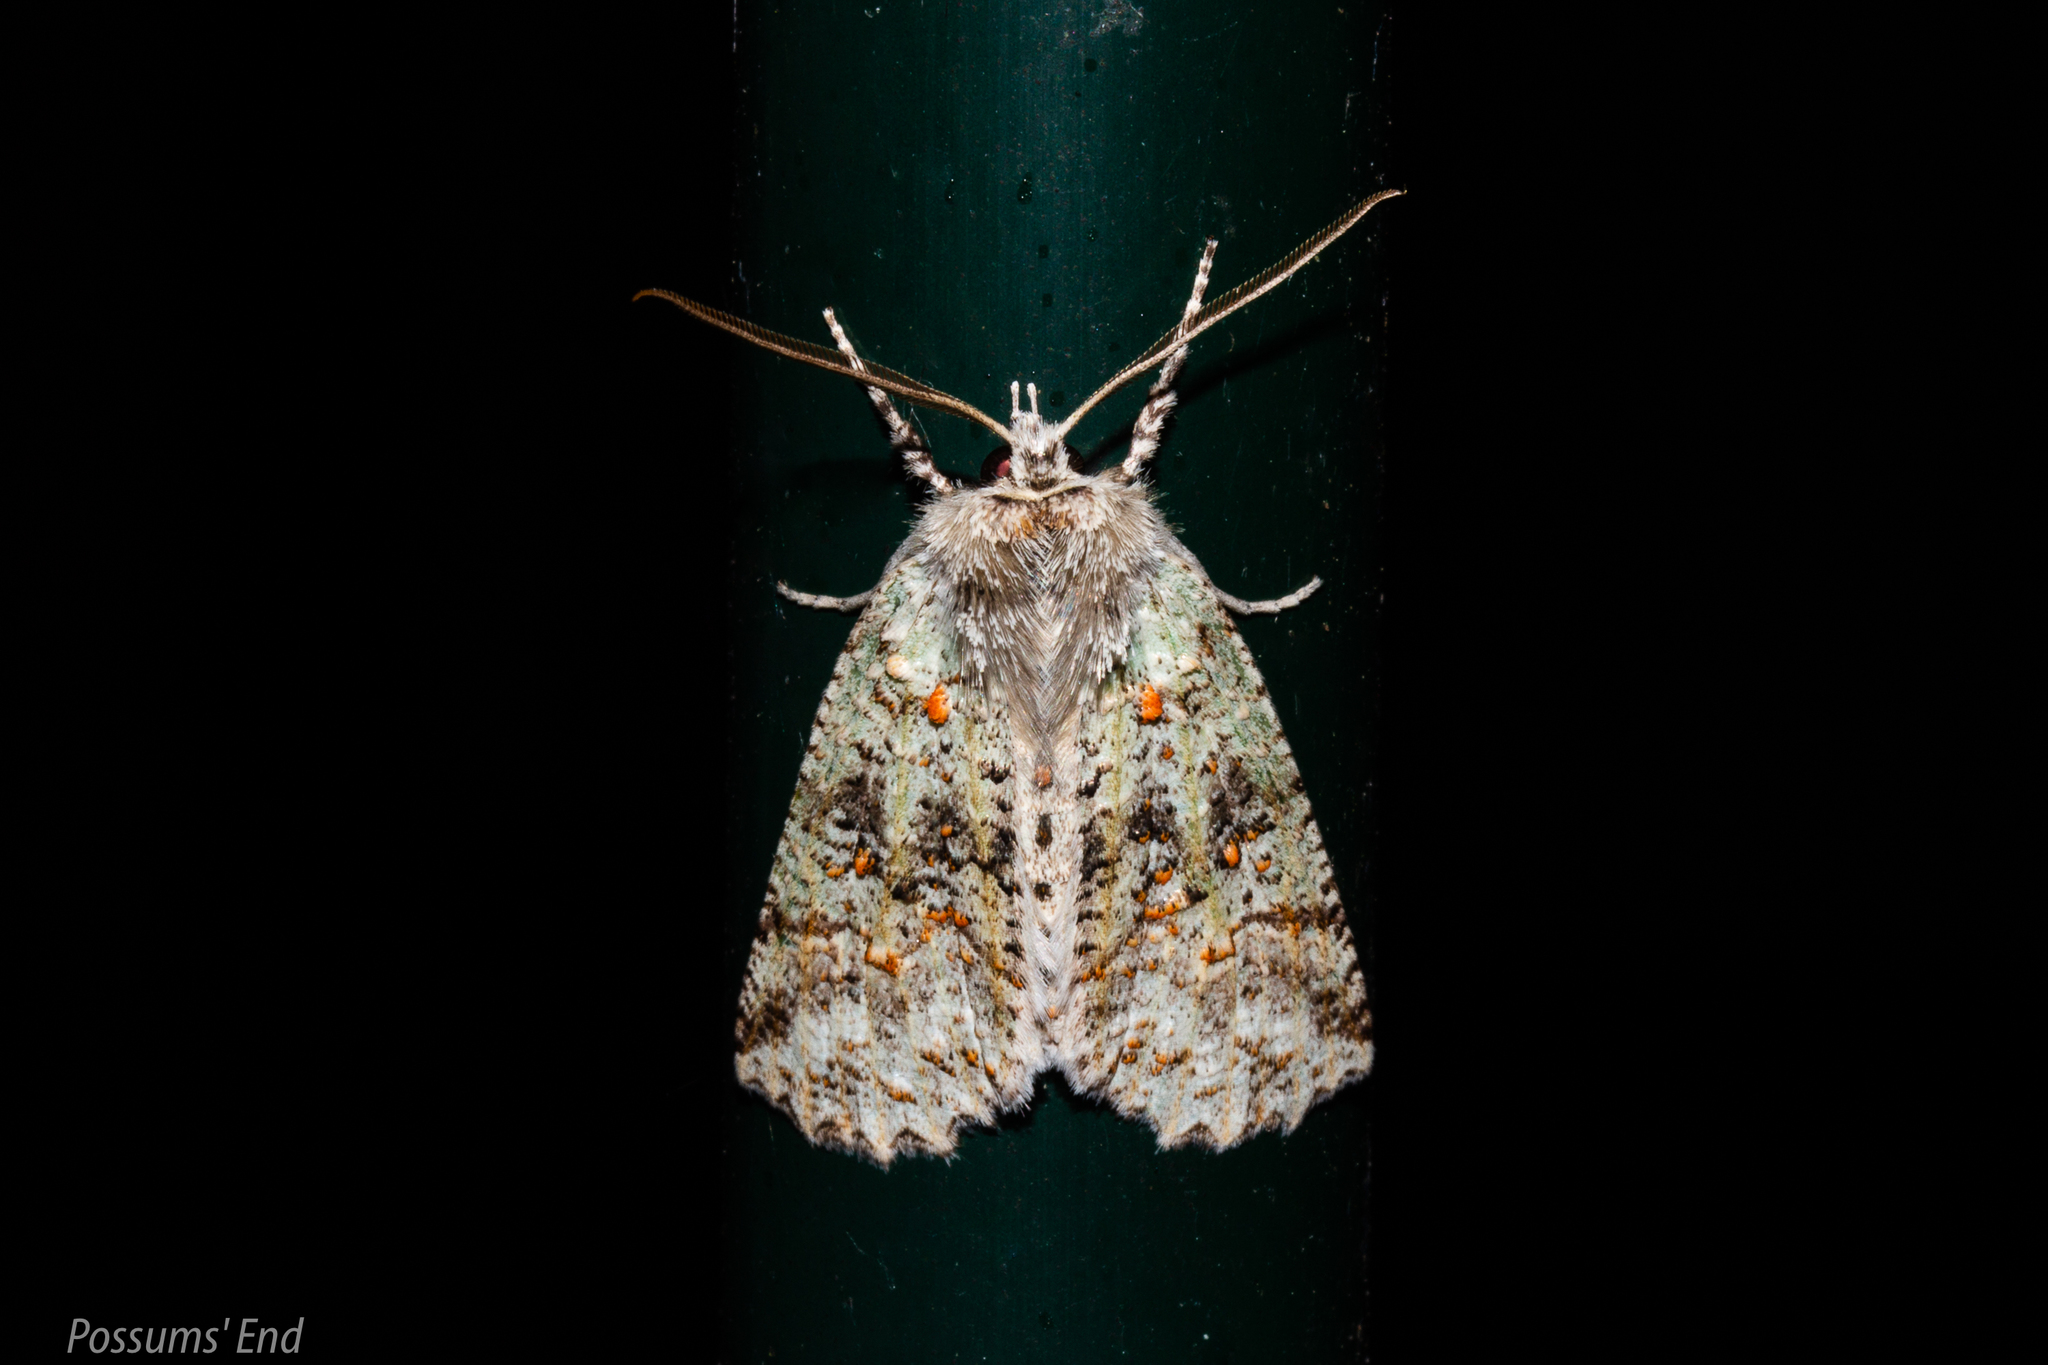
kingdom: Animalia
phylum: Arthropoda
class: Insecta
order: Lepidoptera
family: Geometridae
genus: Declana
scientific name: Declana floccosa
